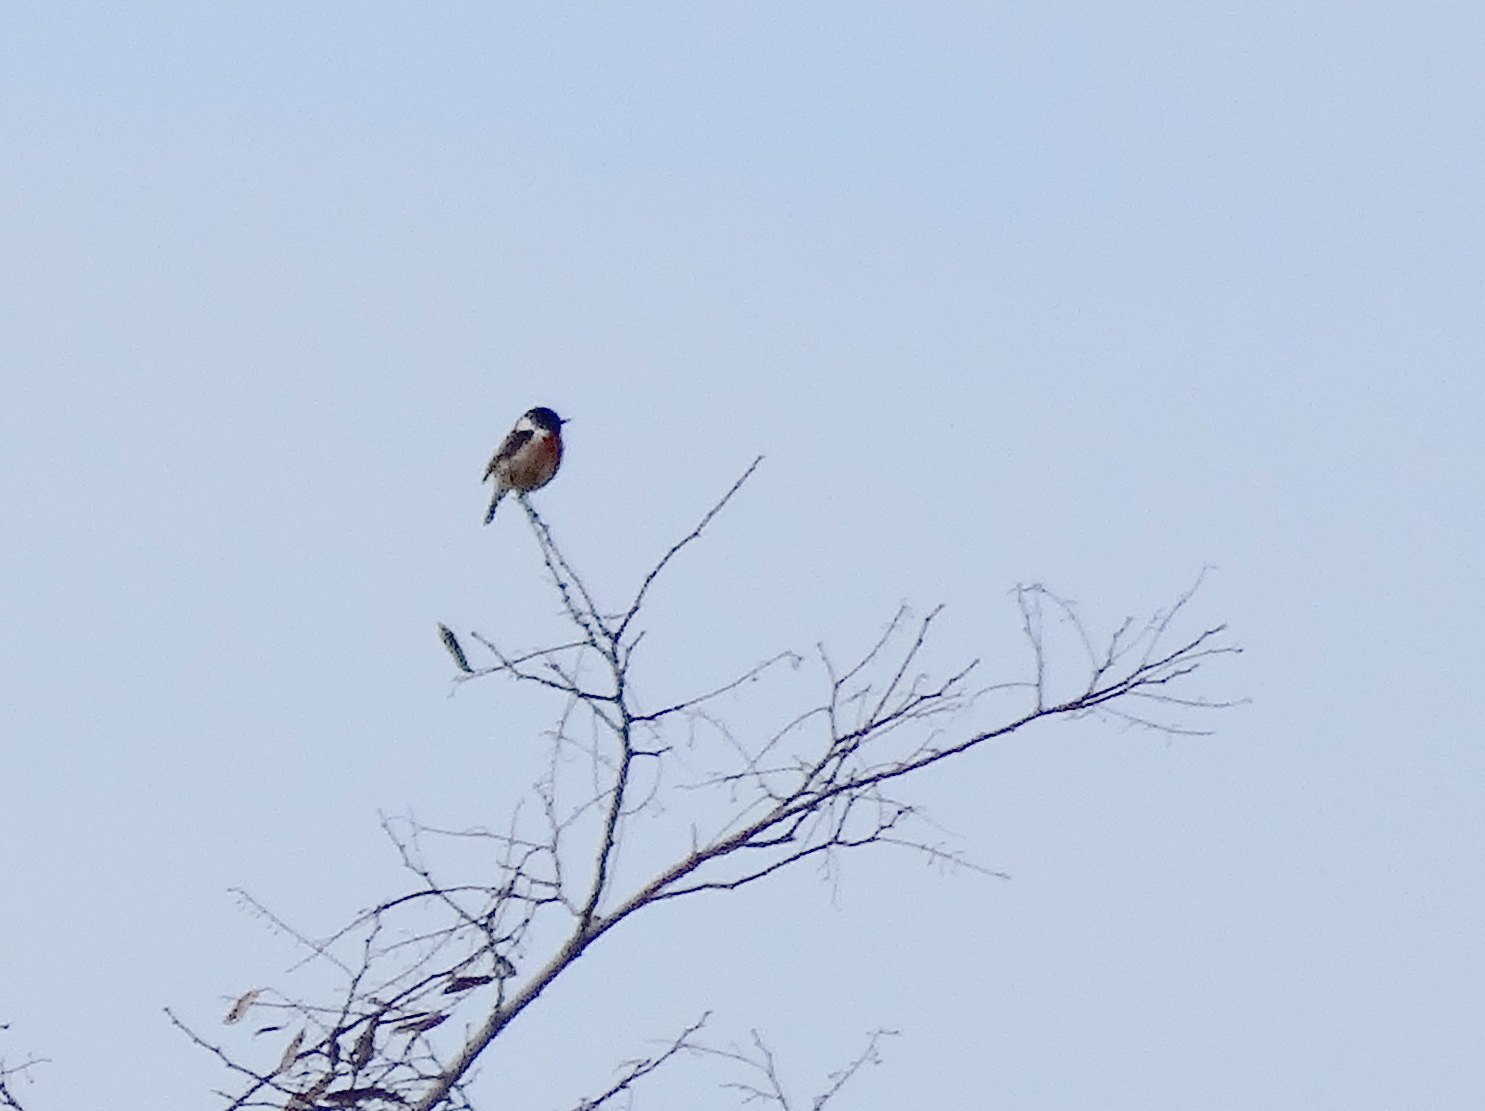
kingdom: Animalia
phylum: Chordata
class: Aves
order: Passeriformes
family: Muscicapidae
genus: Saxicola
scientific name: Saxicola rubicola
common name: European stonechat
